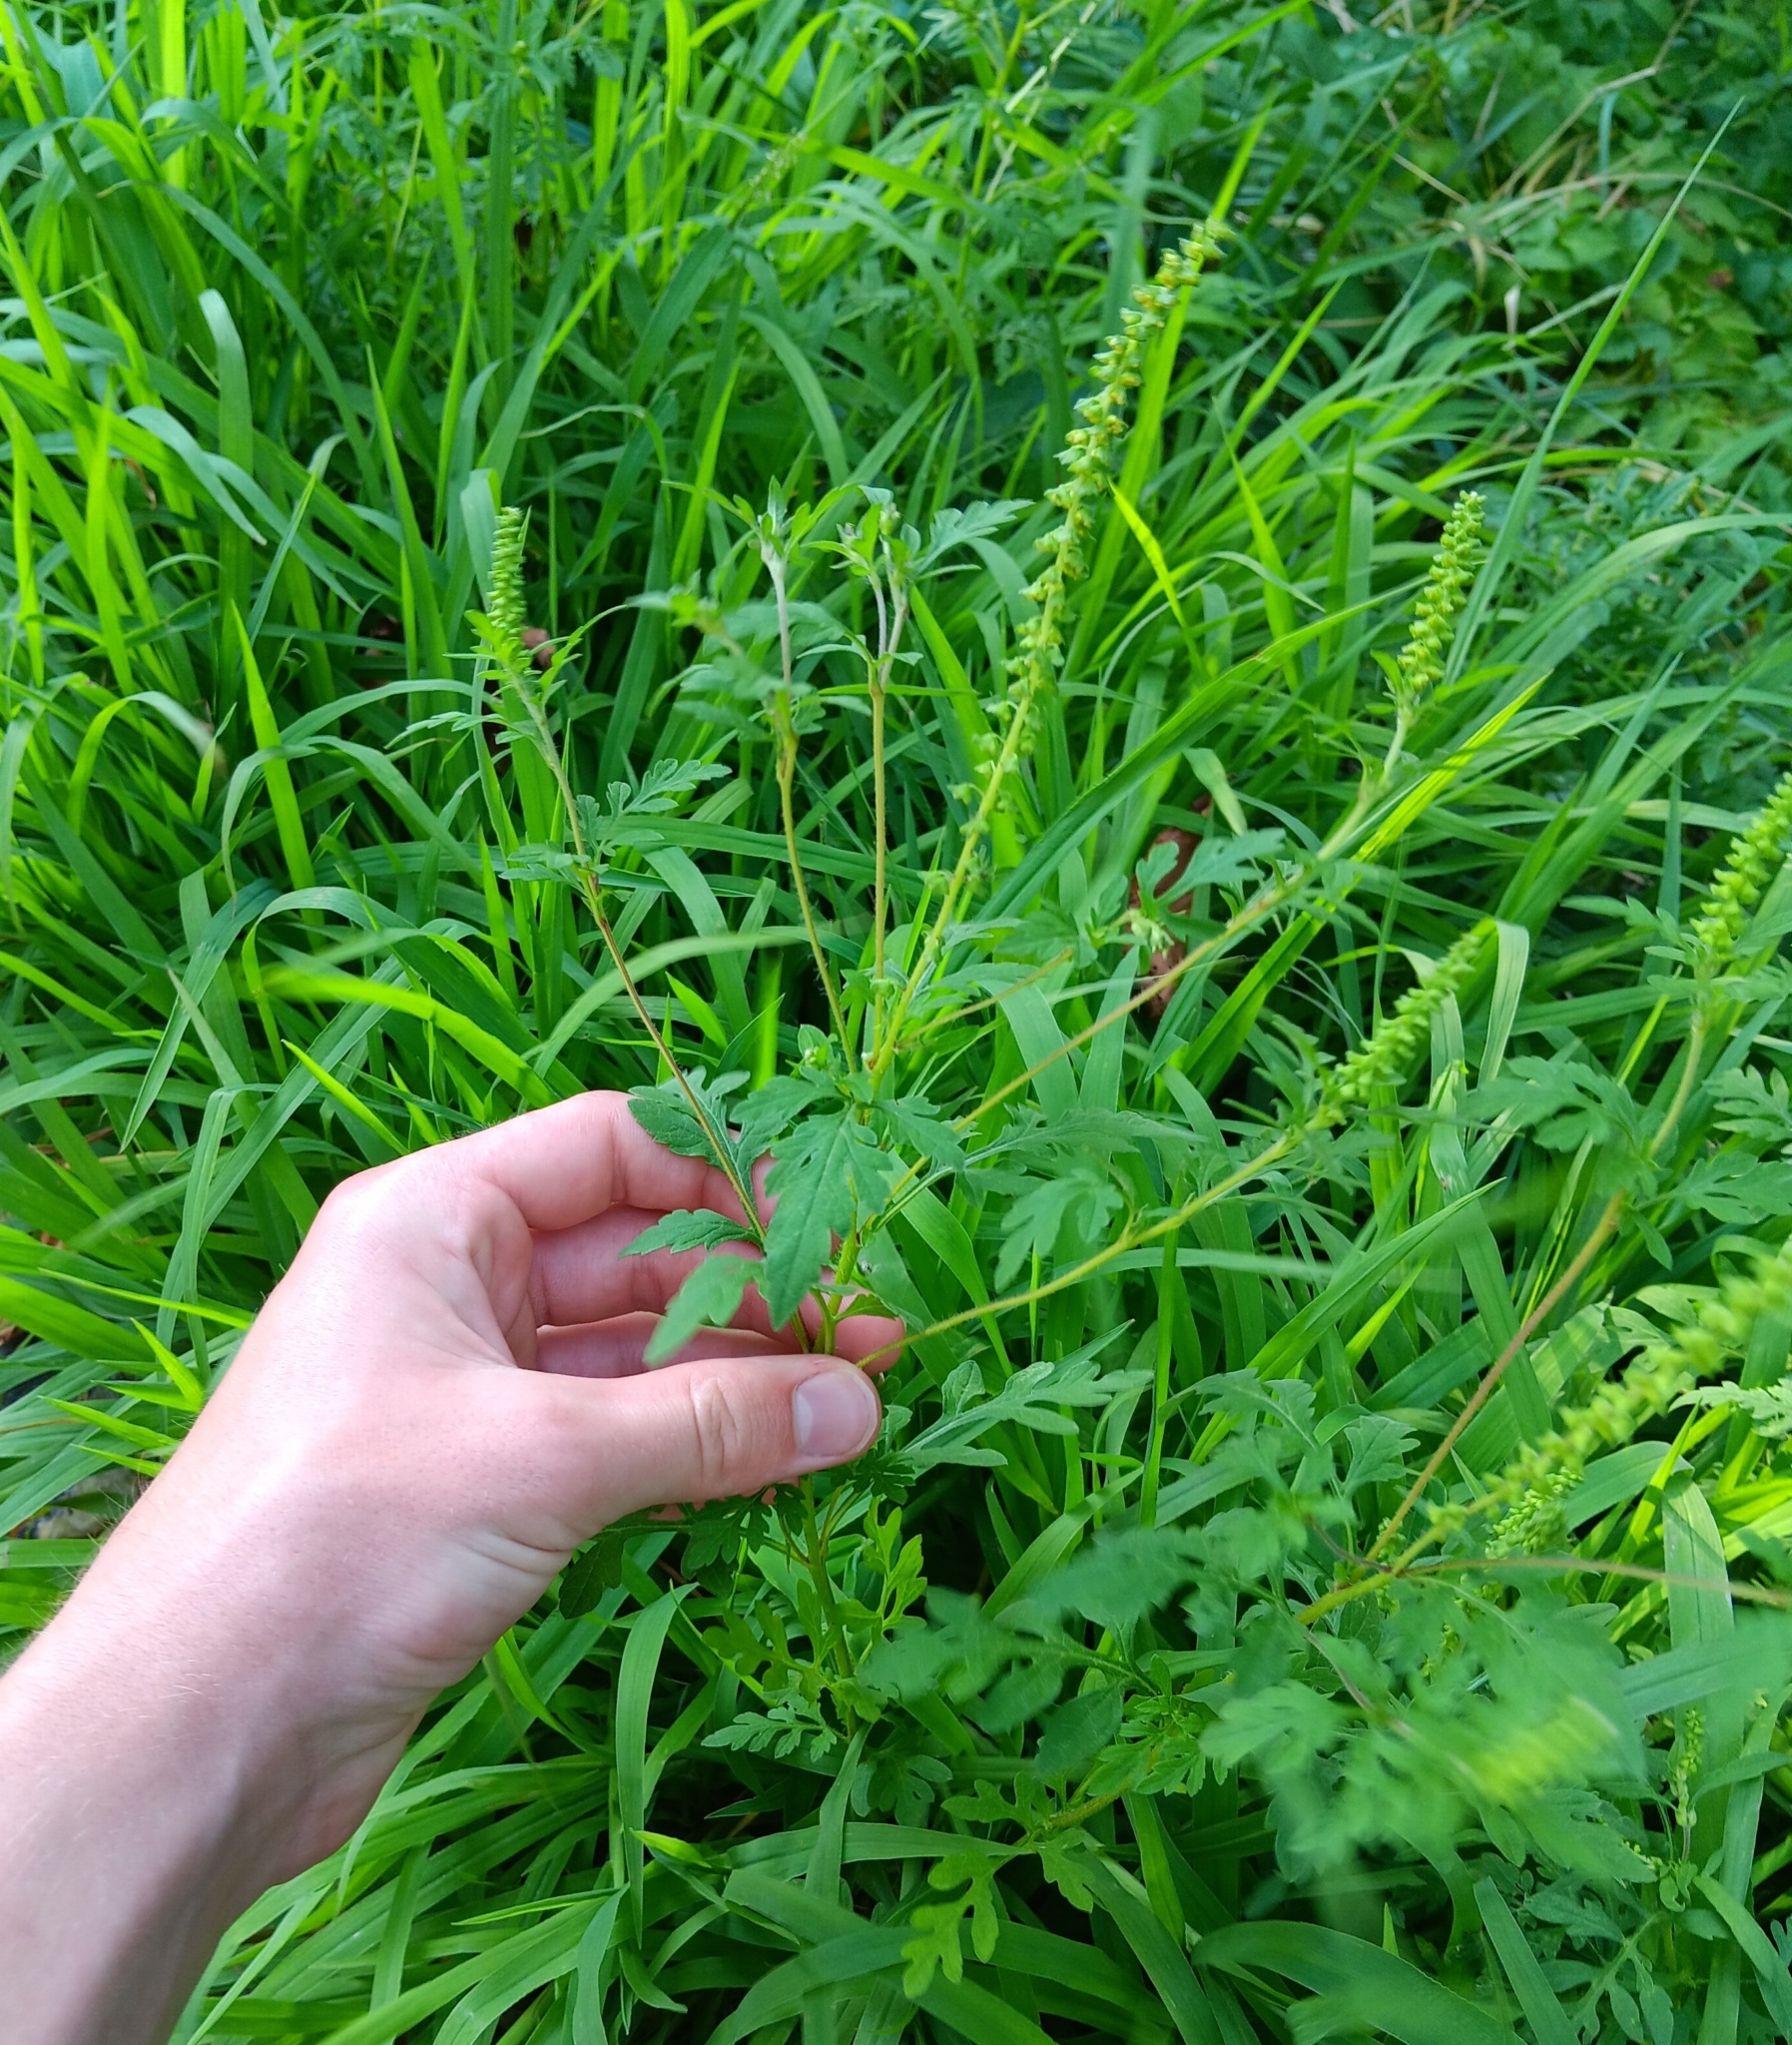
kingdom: Plantae
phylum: Tracheophyta
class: Magnoliopsida
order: Asterales
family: Asteraceae
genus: Ambrosia
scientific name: Ambrosia artemisiifolia
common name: Annual ragweed
